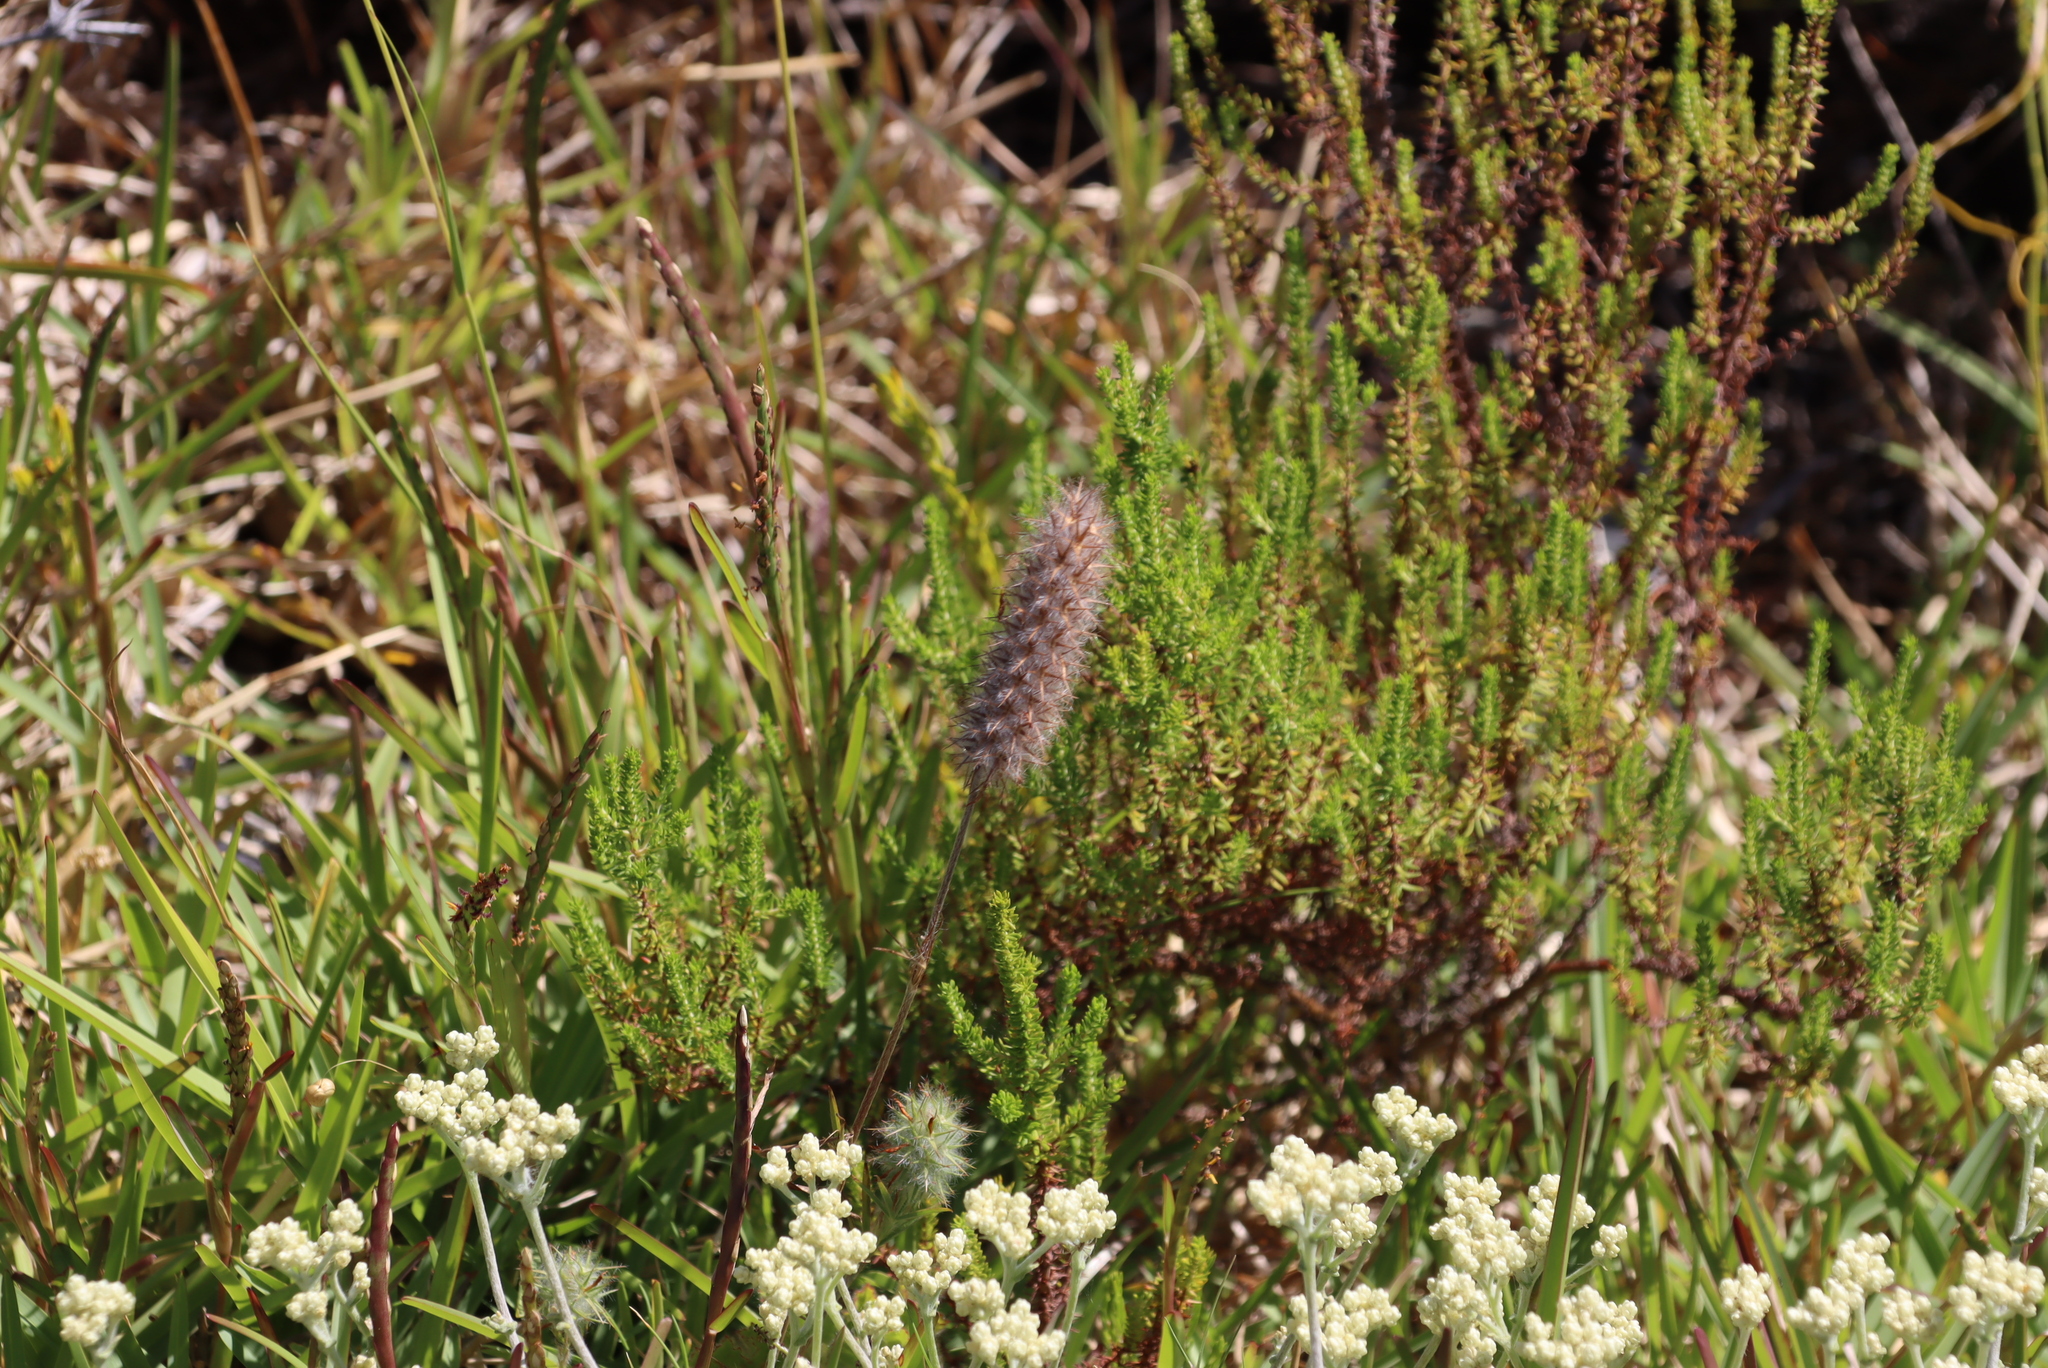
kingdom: Plantae
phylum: Tracheophyta
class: Magnoliopsida
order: Fabales
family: Fabaceae
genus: Trifolium
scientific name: Trifolium angustifolium
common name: Narrow clover
